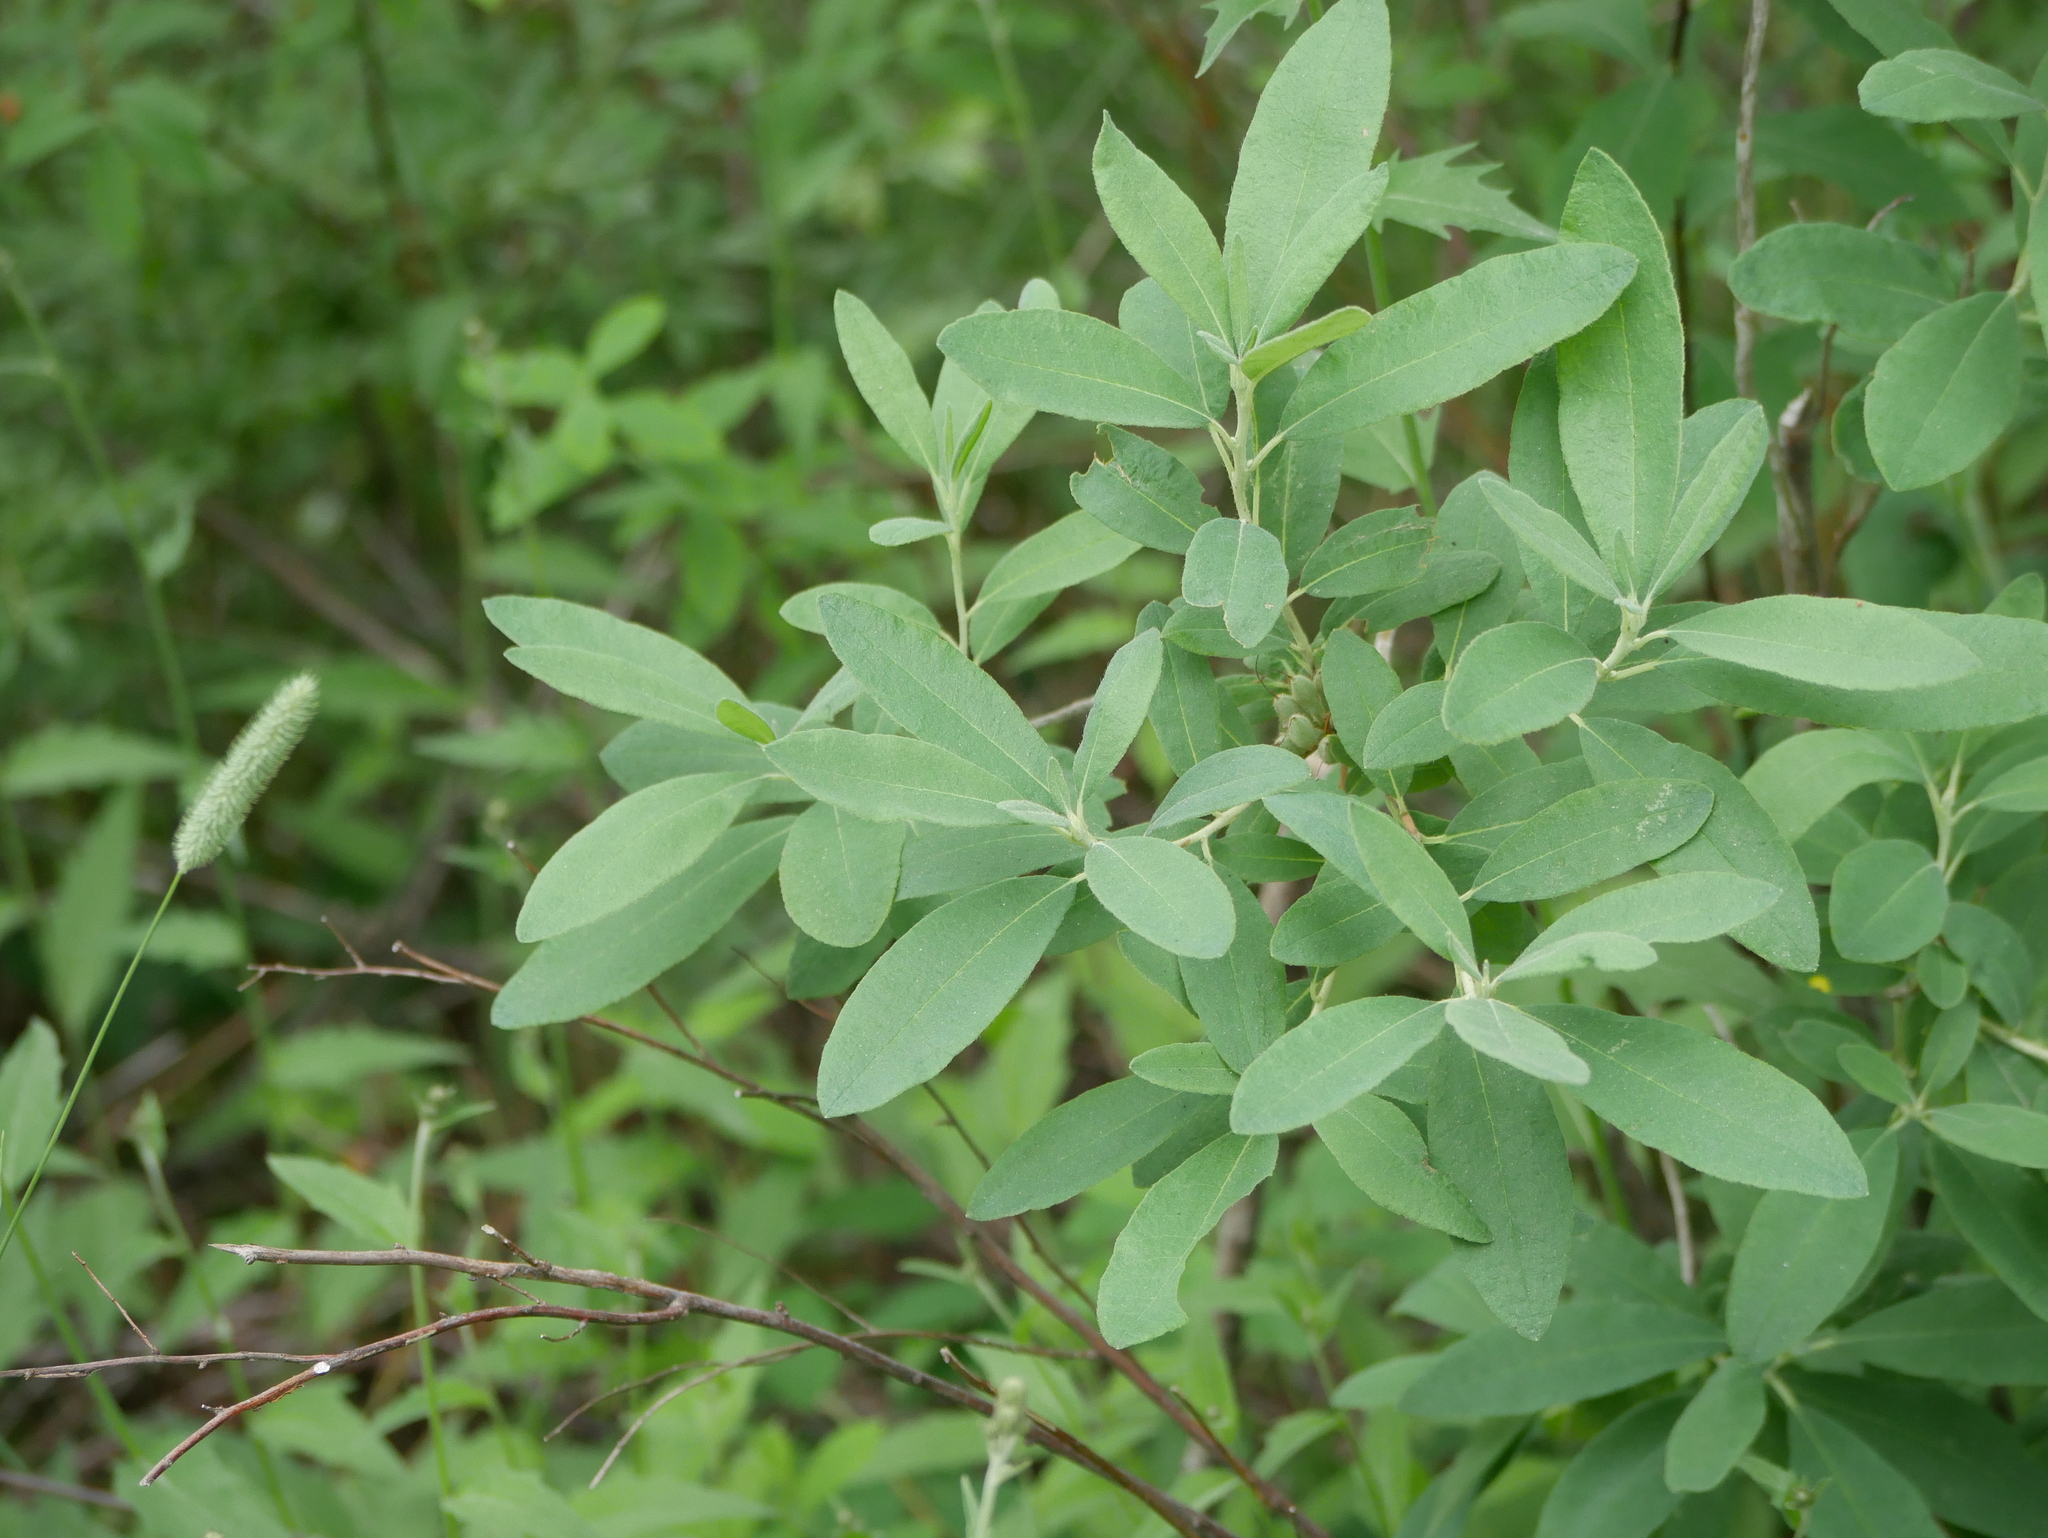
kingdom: Plantae
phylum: Tracheophyta
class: Magnoliopsida
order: Ericales
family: Ericaceae
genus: Rhododendron
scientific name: Rhododendron canadense
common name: Rhodora
